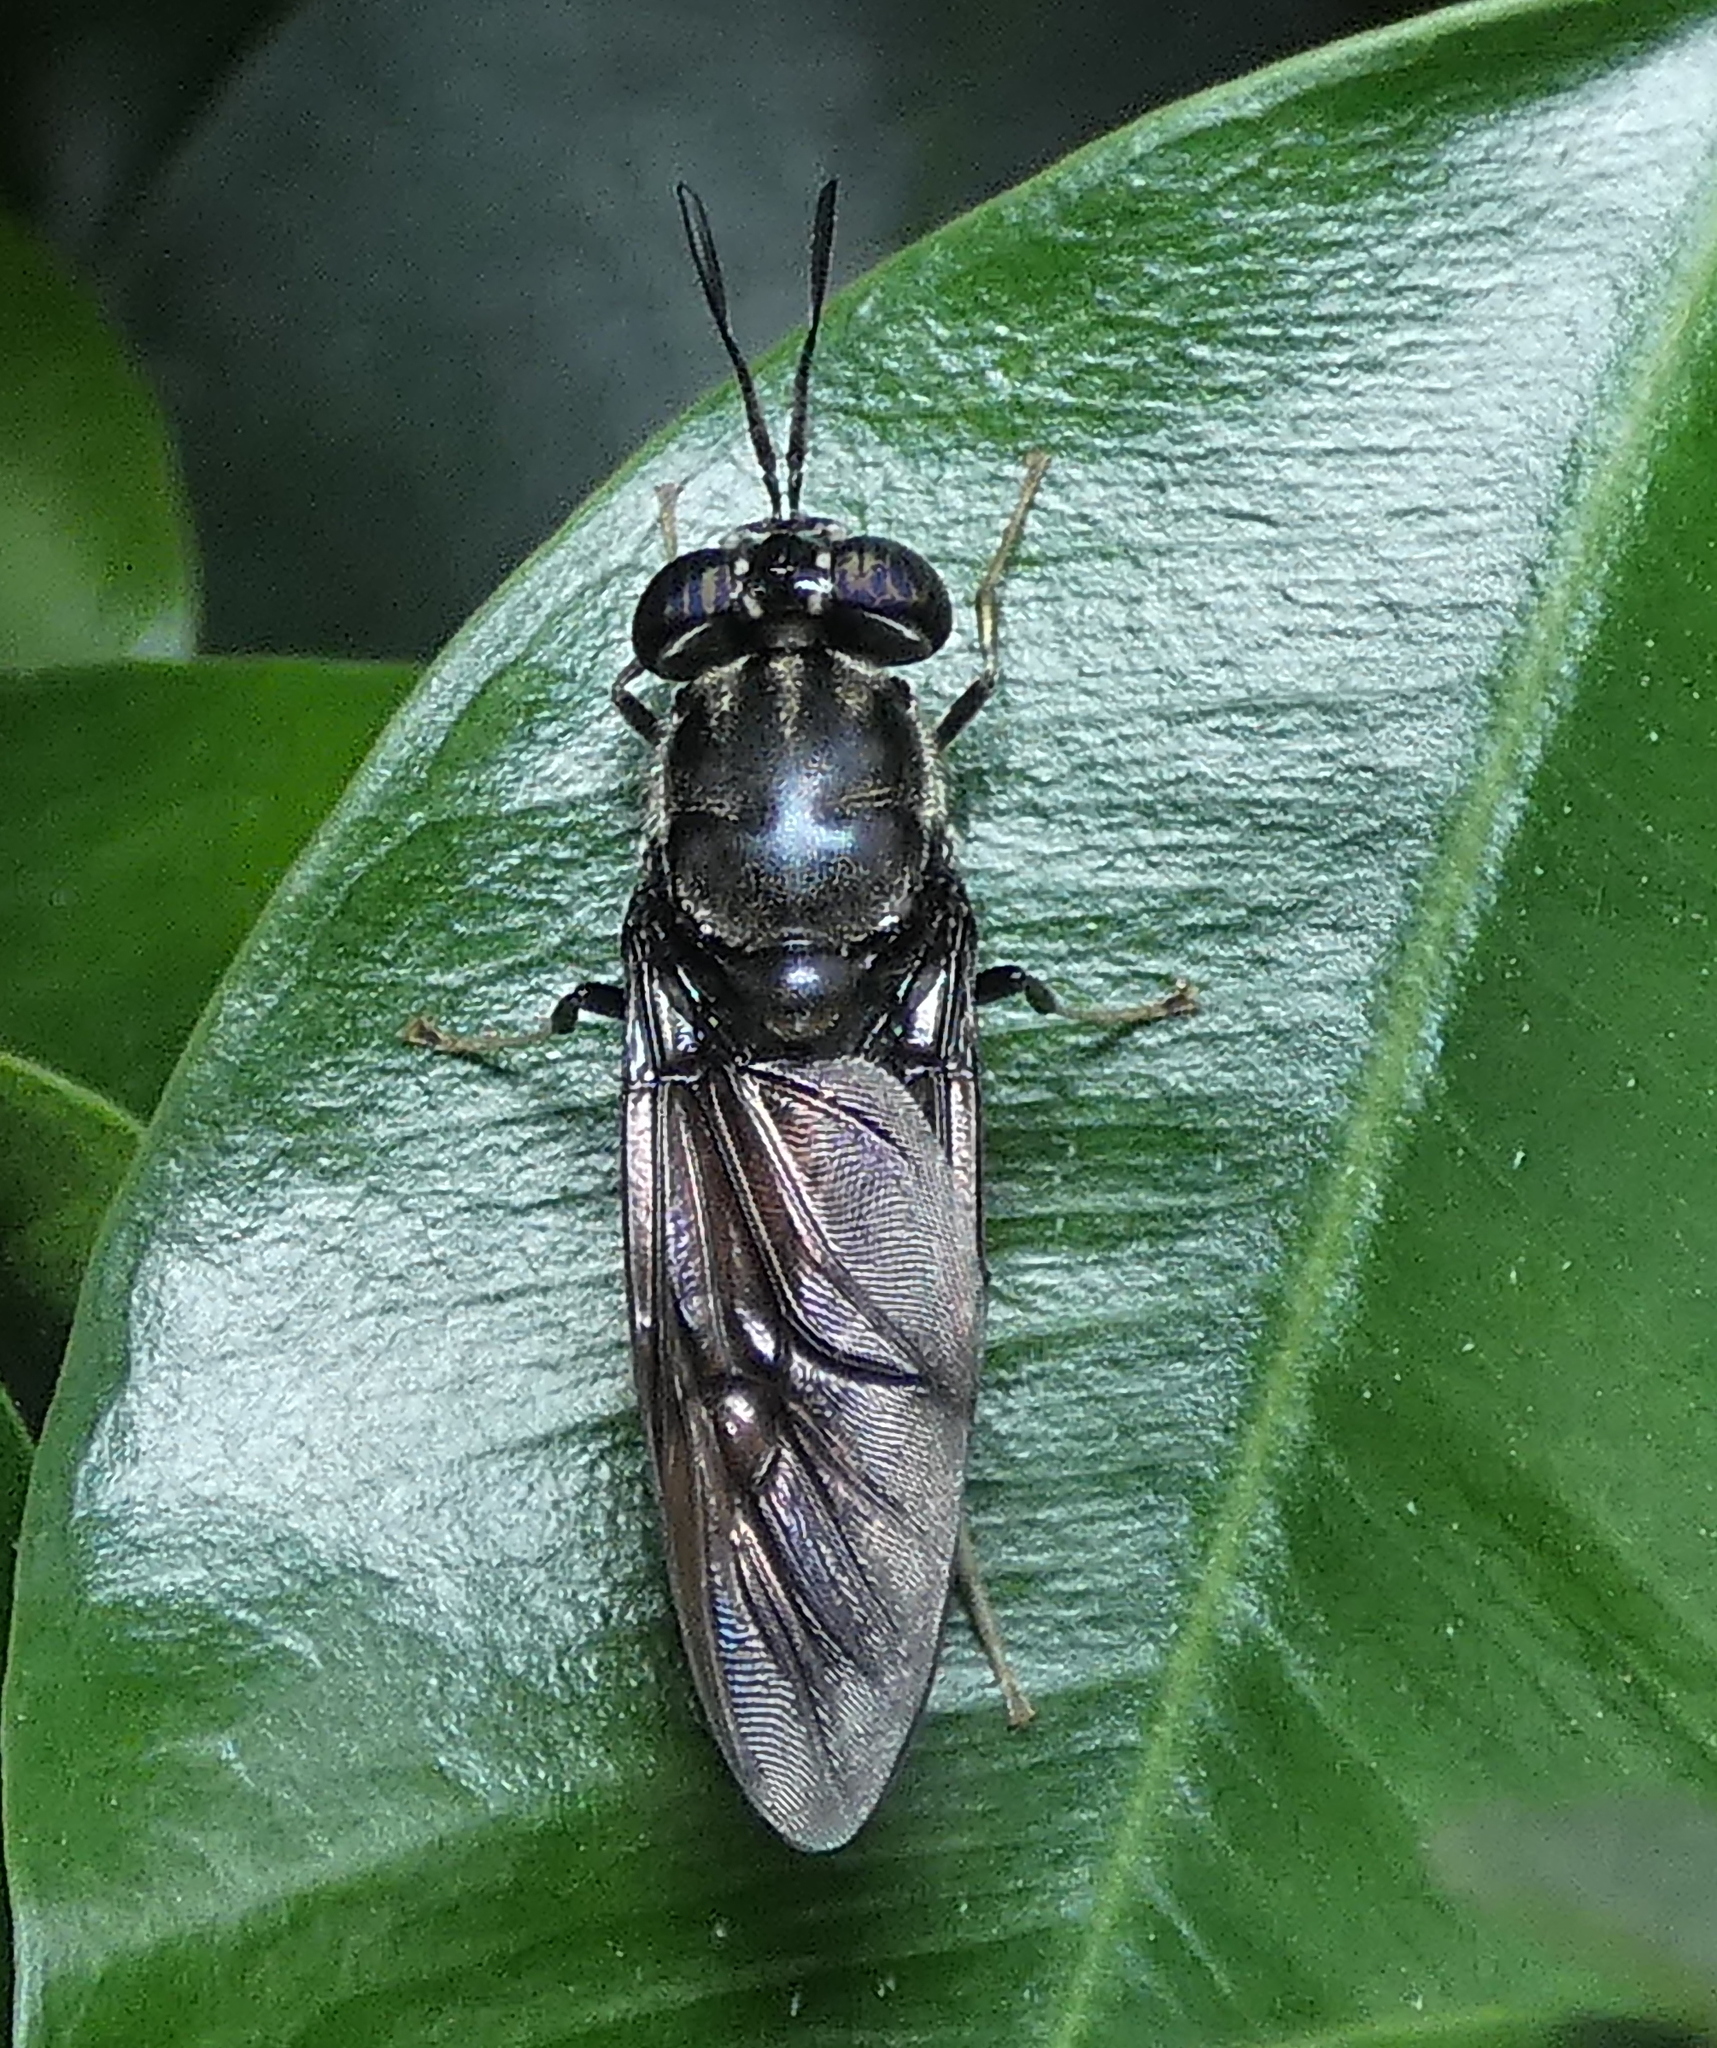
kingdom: Animalia
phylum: Arthropoda
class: Insecta
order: Diptera
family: Stratiomyidae
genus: Hermetia
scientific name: Hermetia illucens
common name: Black soldier fly
